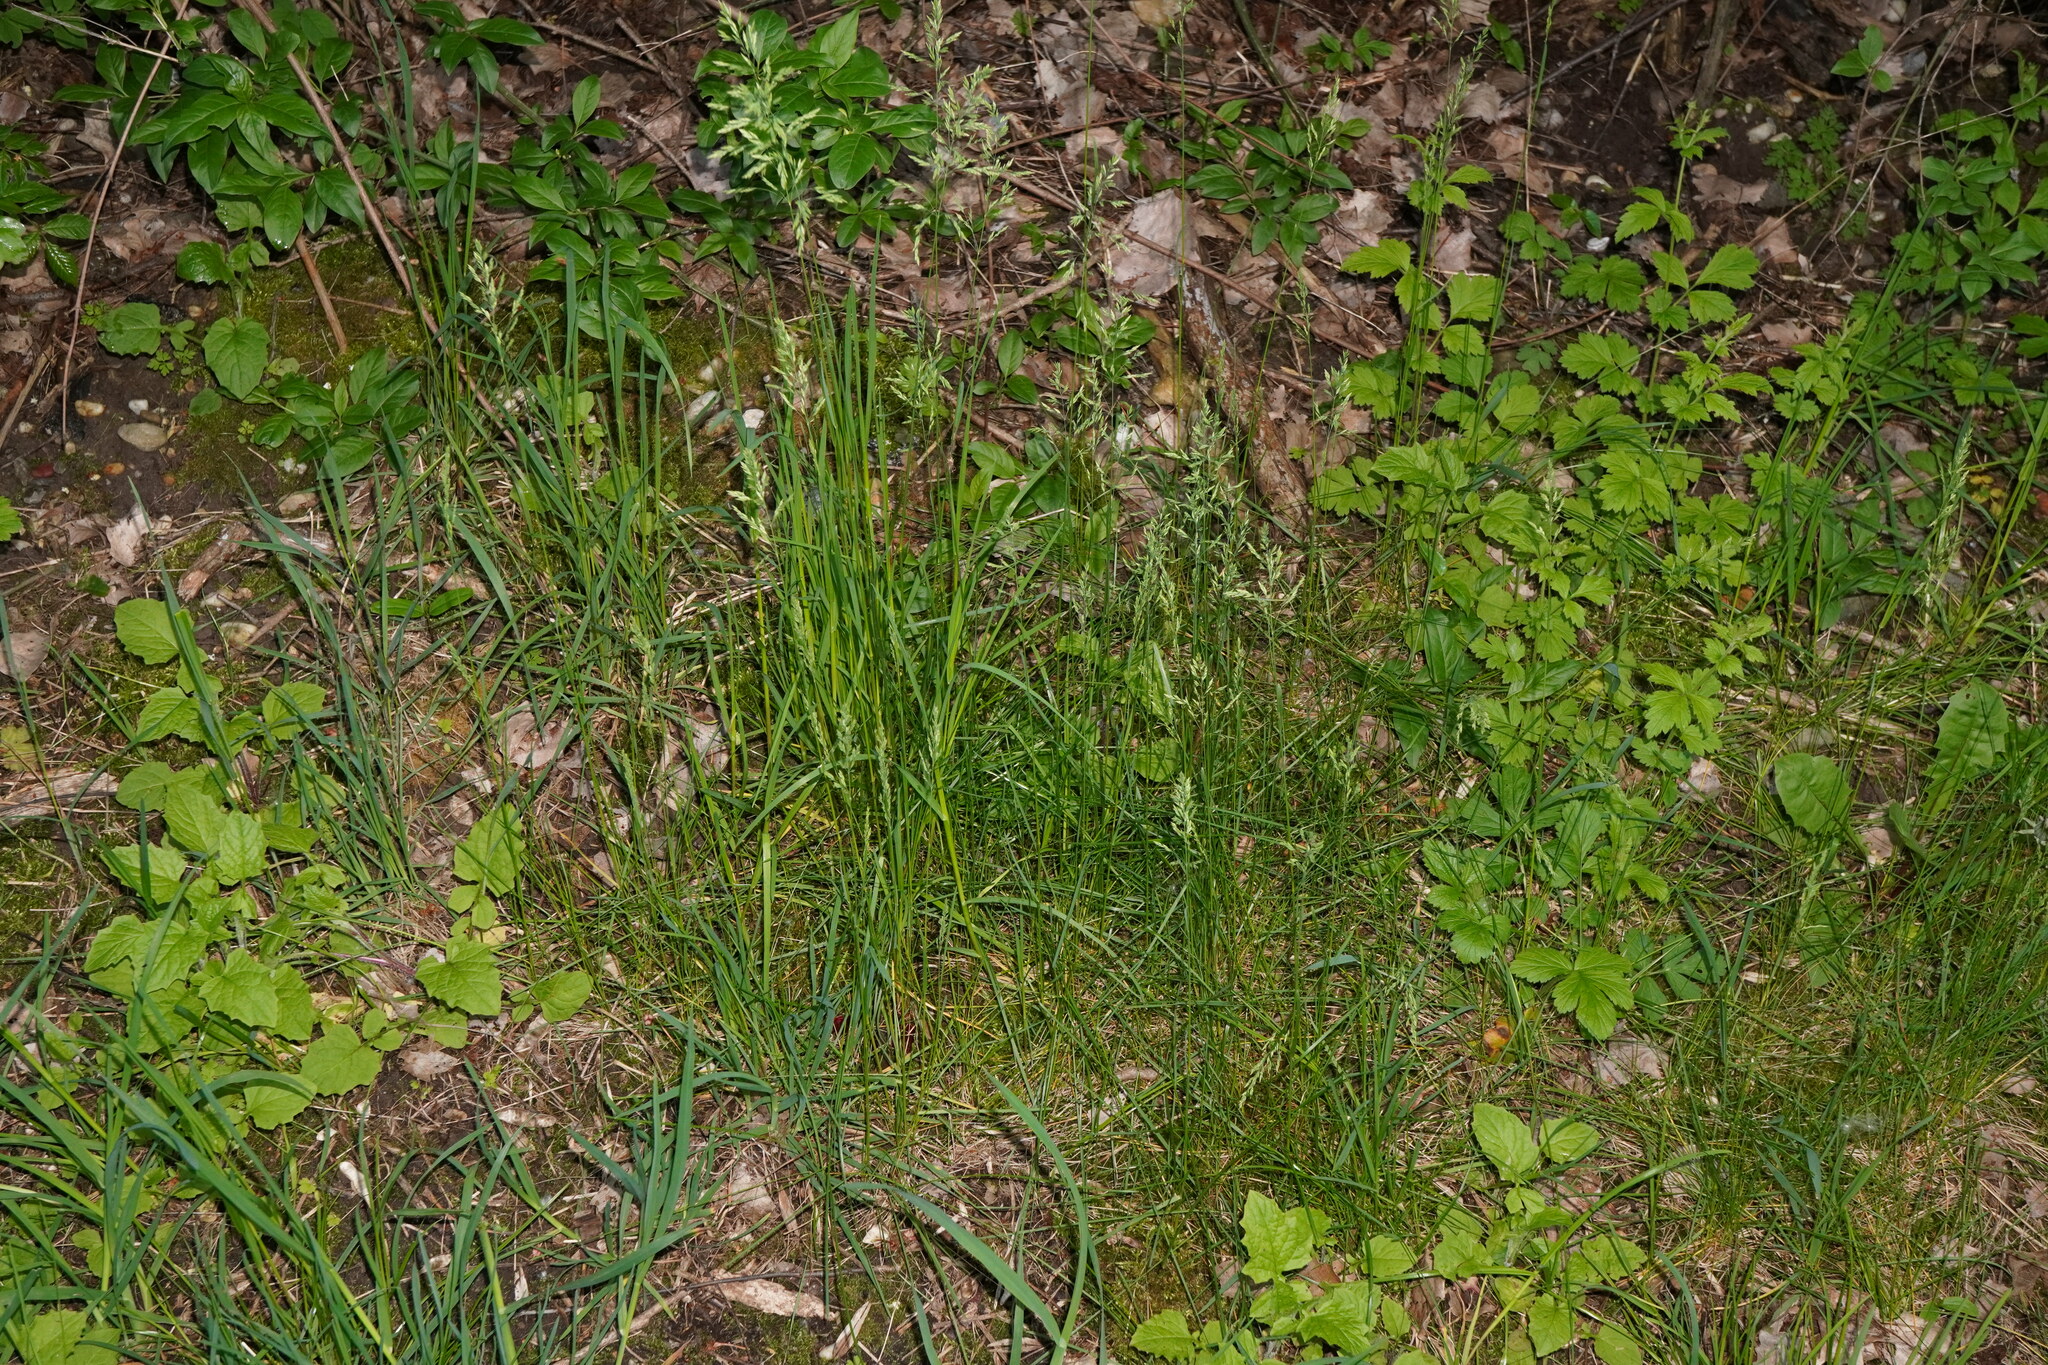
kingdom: Plantae
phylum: Tracheophyta
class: Liliopsida
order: Poales
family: Poaceae
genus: Poa
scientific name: Poa pratensis
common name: Kentucky bluegrass
